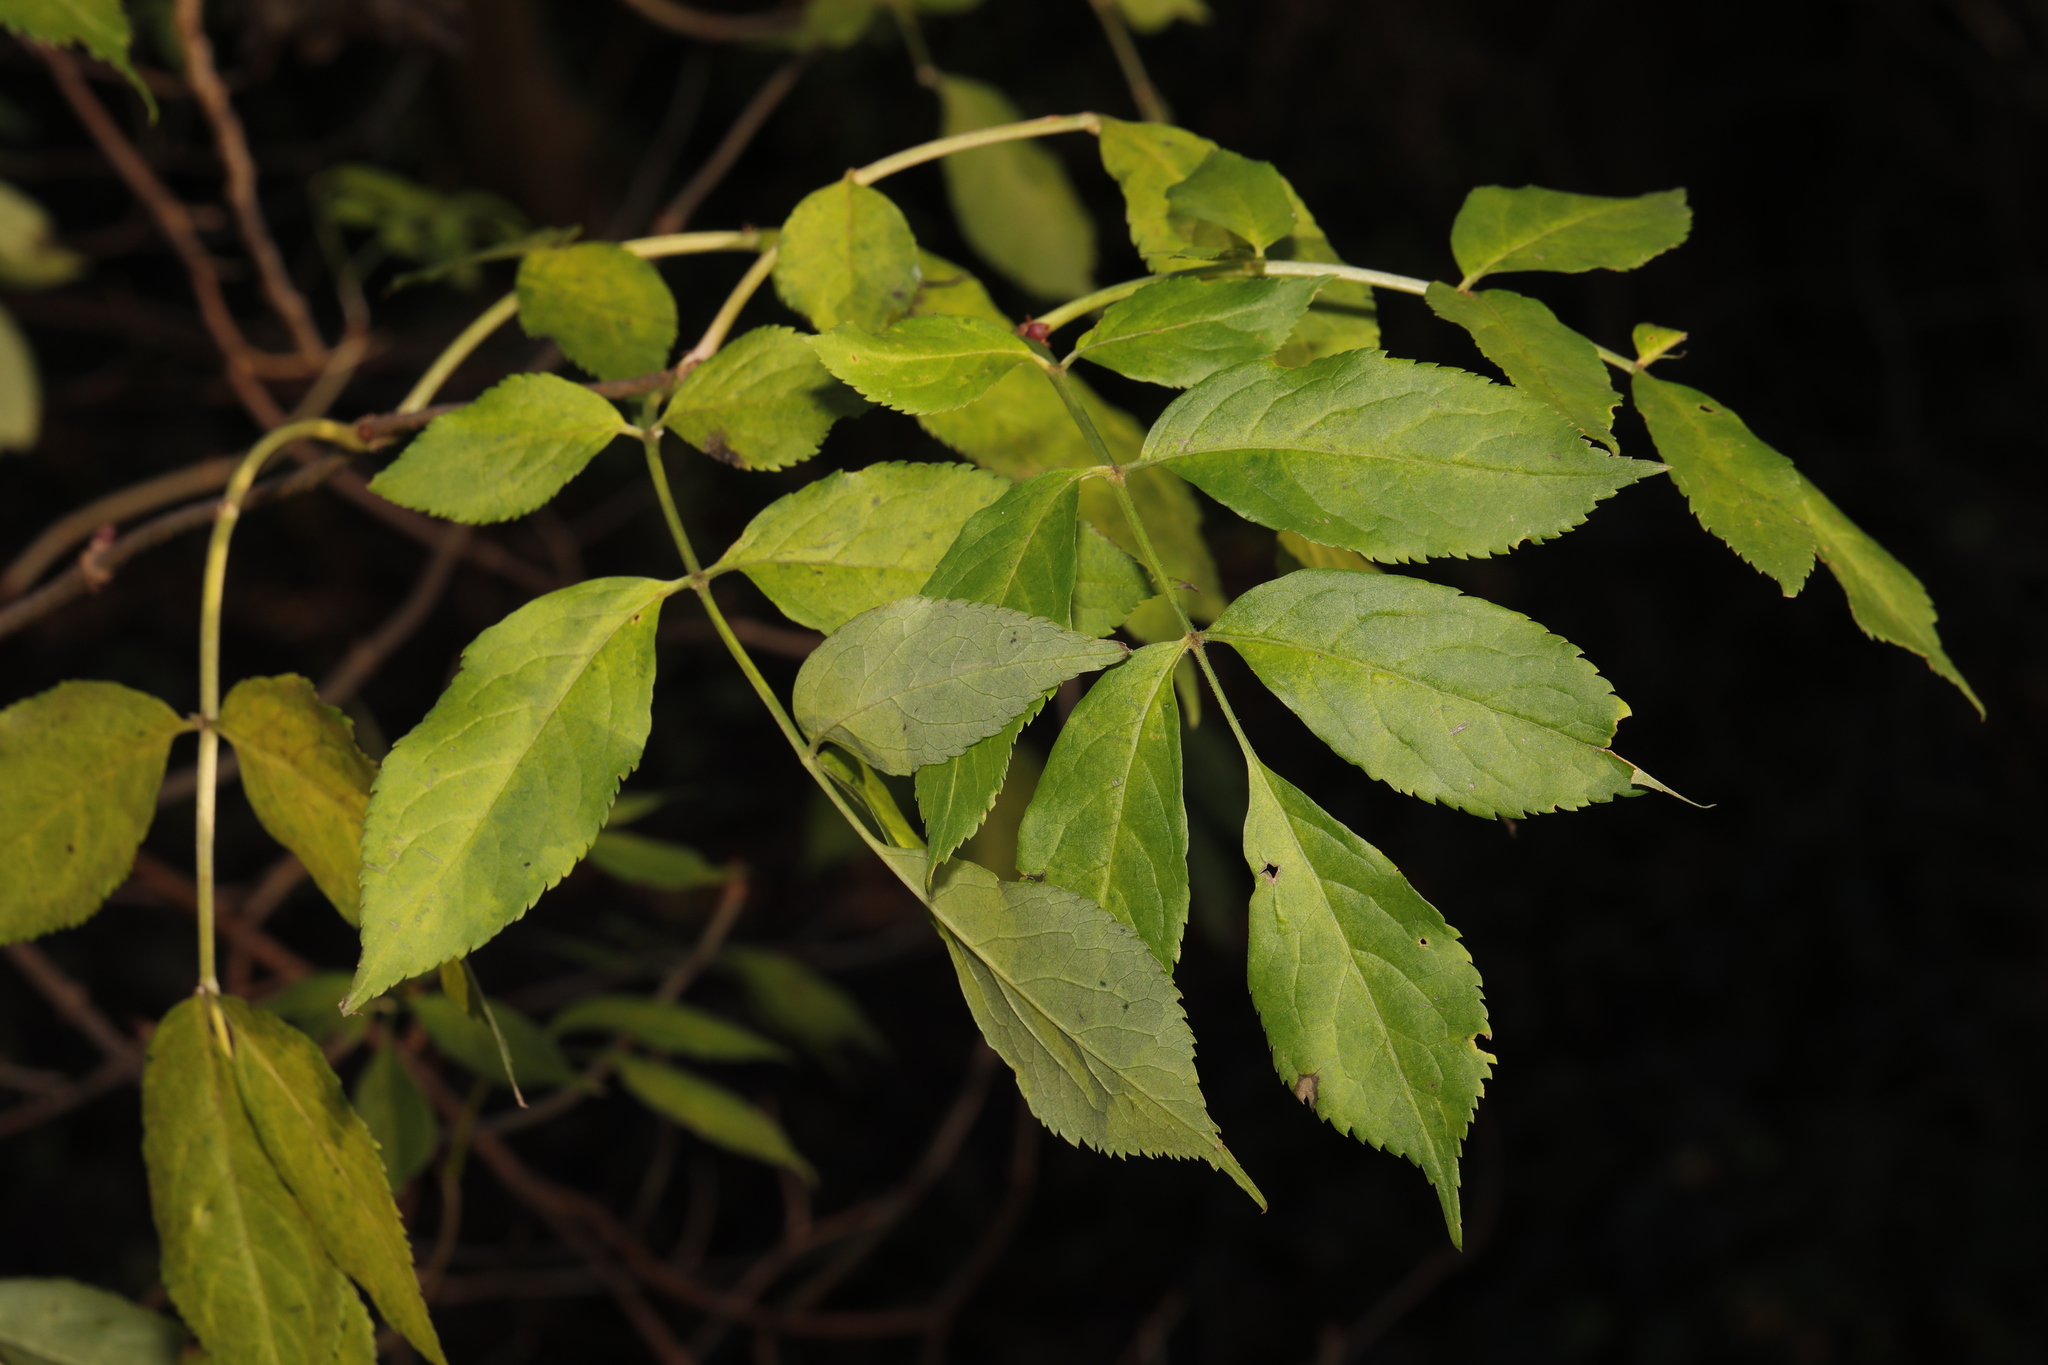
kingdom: Plantae
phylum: Tracheophyta
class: Magnoliopsida
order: Dipsacales
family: Viburnaceae
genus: Sambucus
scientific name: Sambucus nigra
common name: Elder
